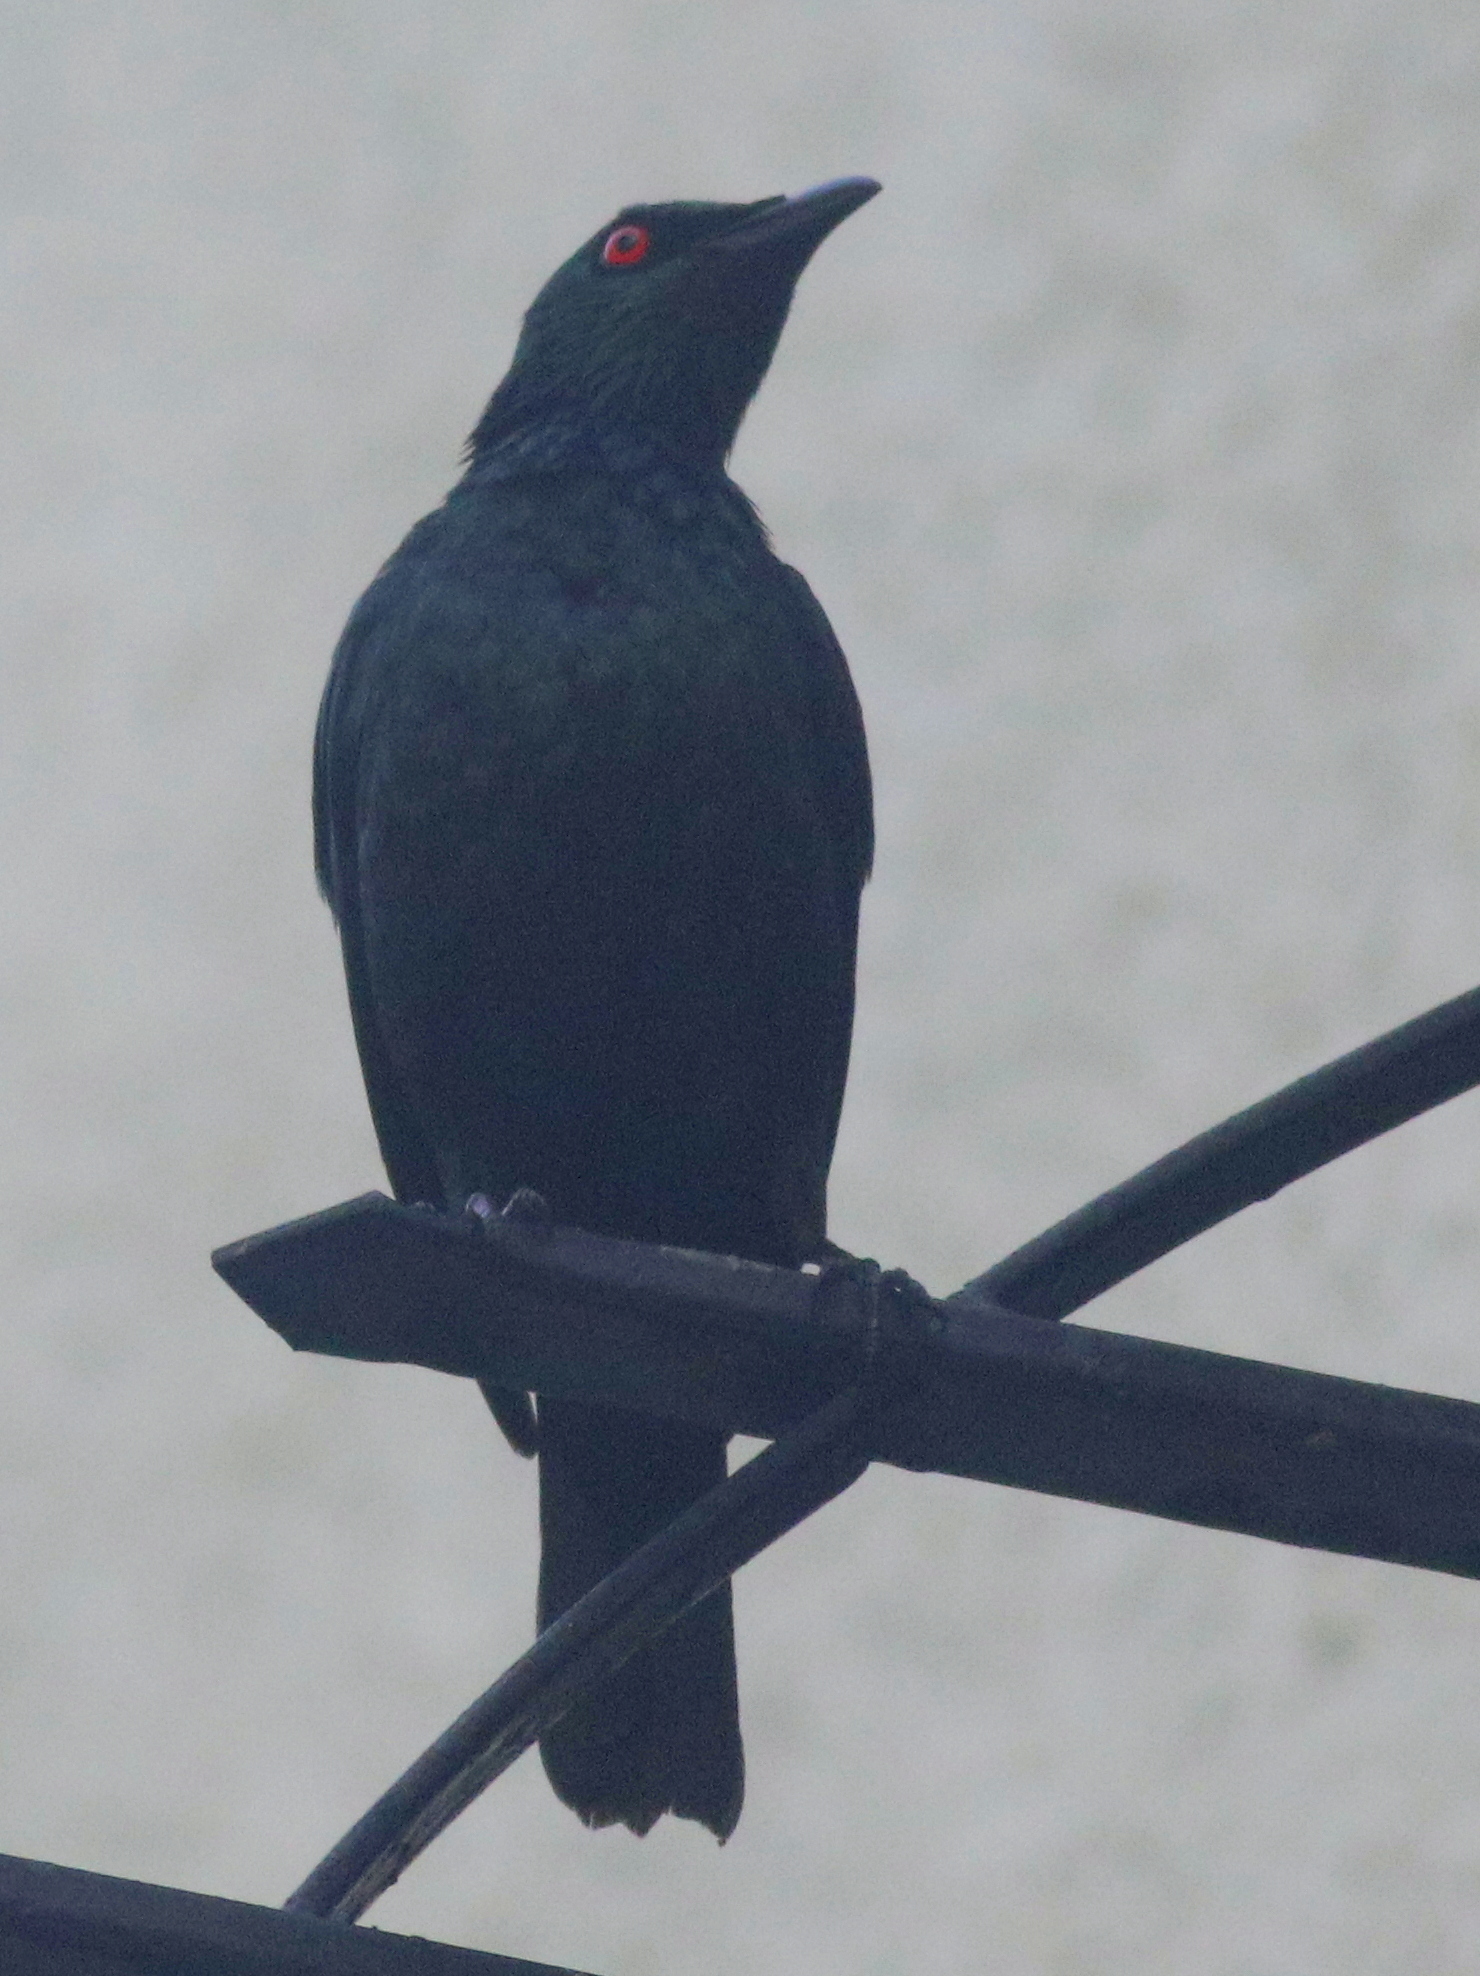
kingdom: Animalia
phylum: Chordata
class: Aves
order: Passeriformes
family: Sturnidae
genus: Aplonis
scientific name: Aplonis panayensis
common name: Asian glossy starling
